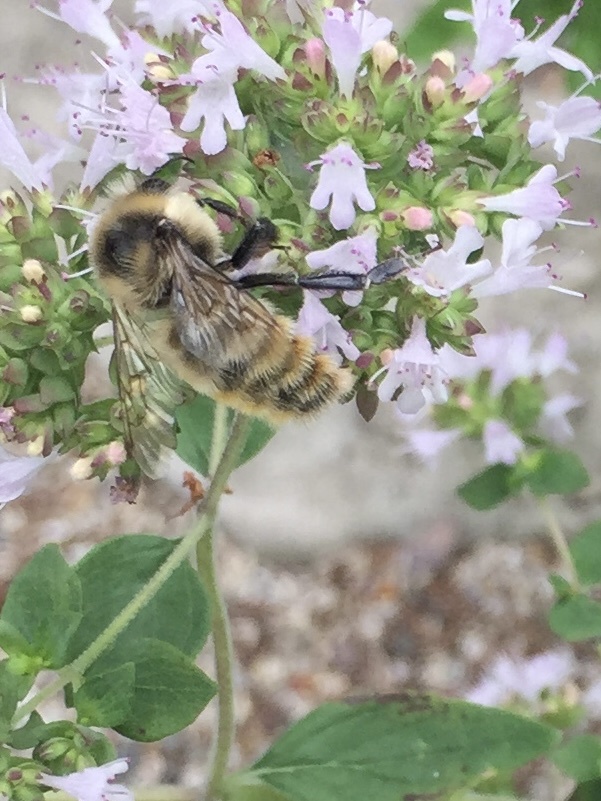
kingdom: Animalia
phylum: Arthropoda
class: Insecta
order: Hymenoptera
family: Apidae
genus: Bombus
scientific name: Bombus rufocinctus
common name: Red-belted bumble bee
